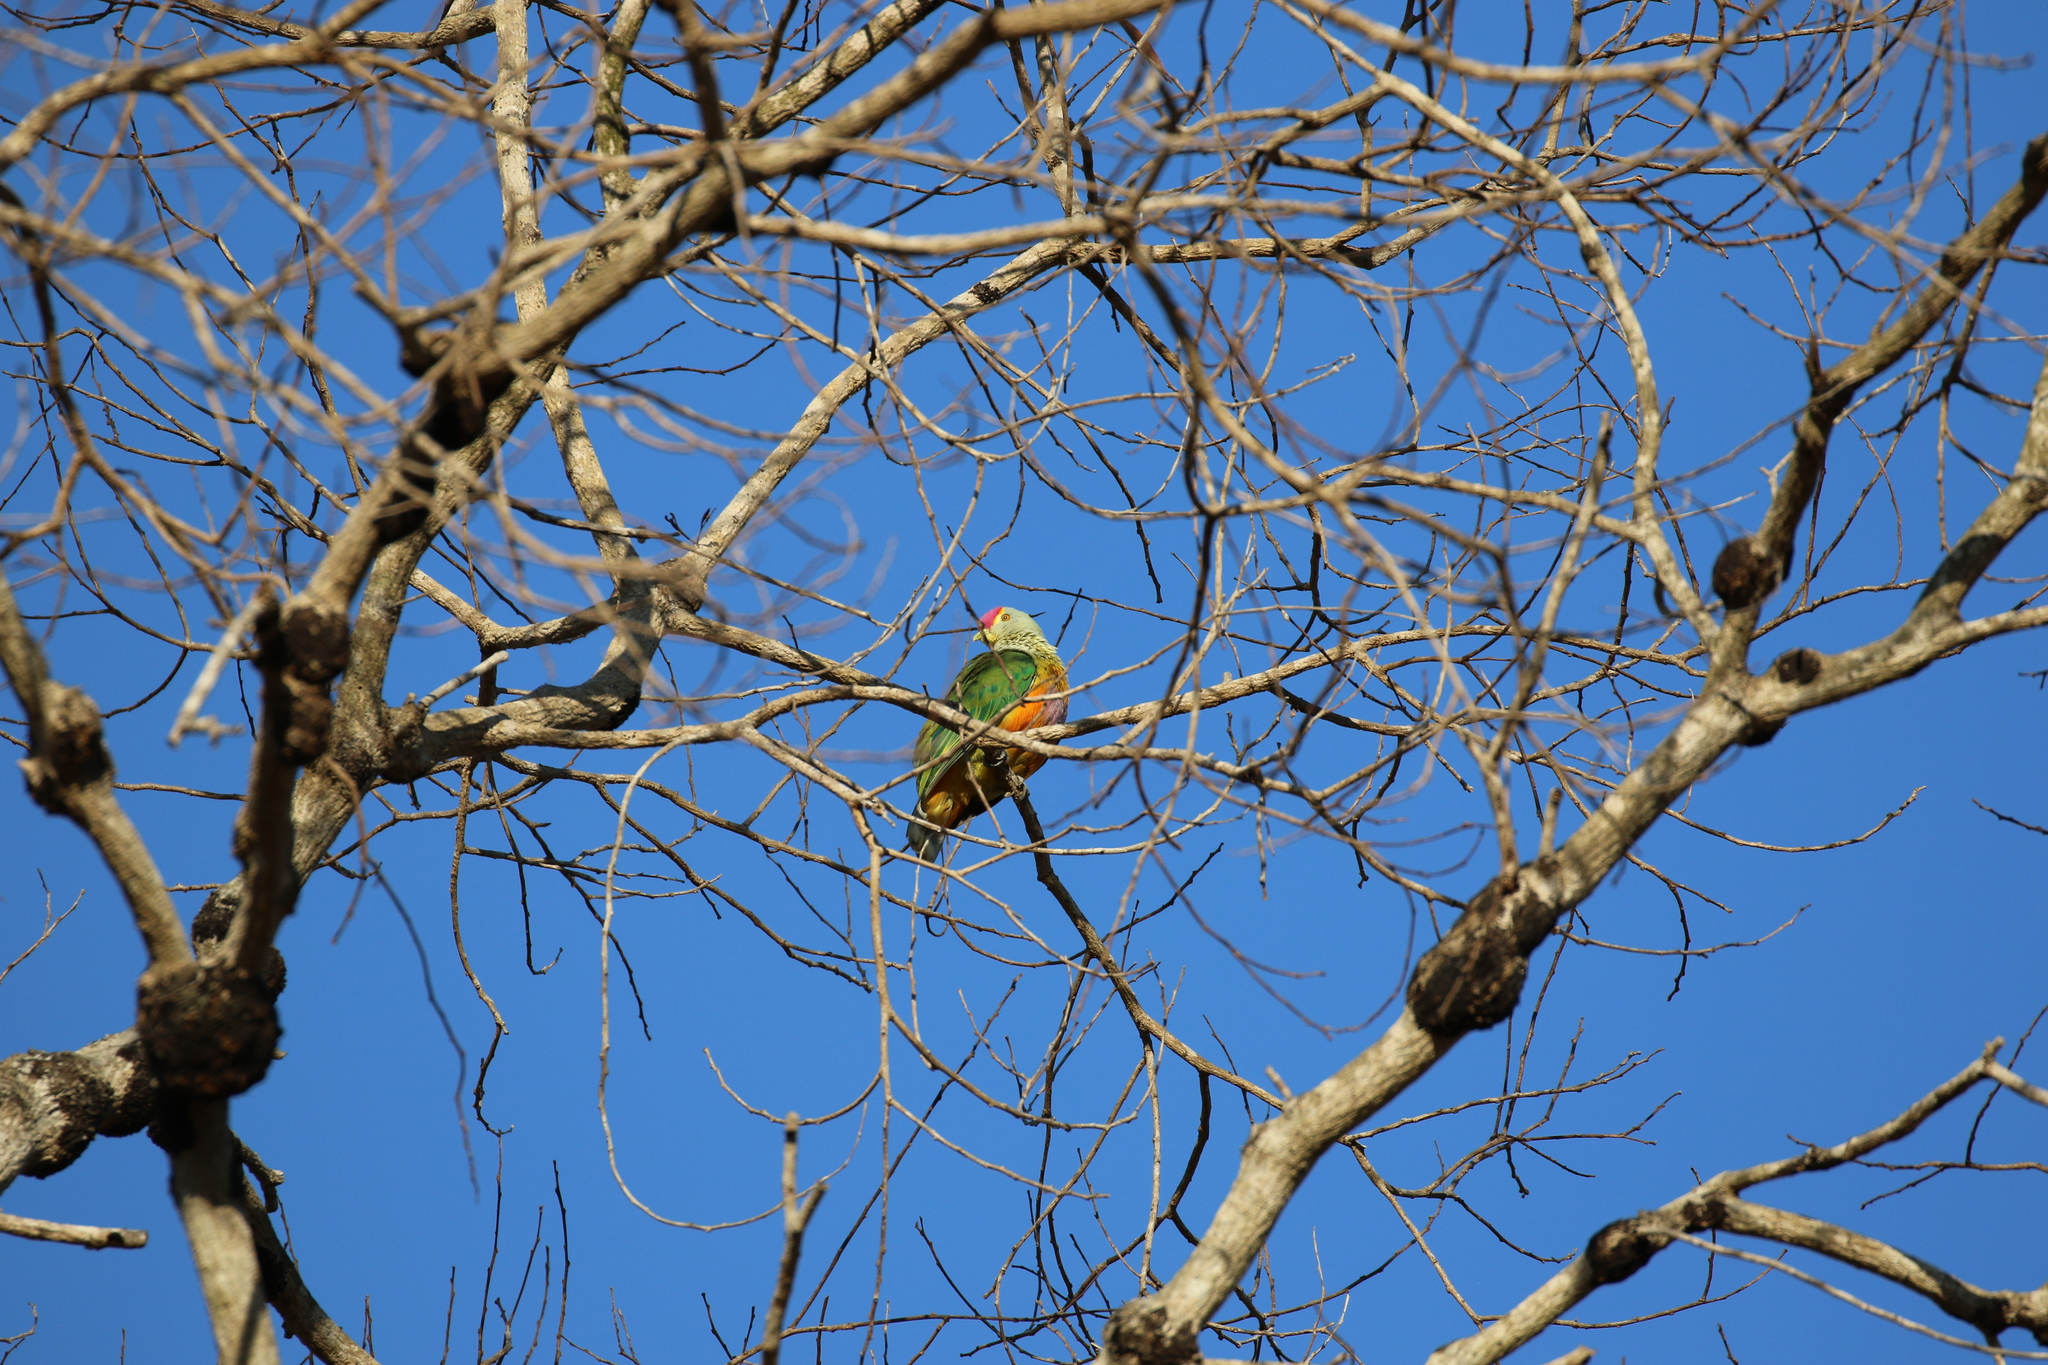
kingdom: Animalia
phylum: Chordata
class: Aves
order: Columbiformes
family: Columbidae
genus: Ptilinopus
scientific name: Ptilinopus regina
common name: Rose-crowned fruit dove
